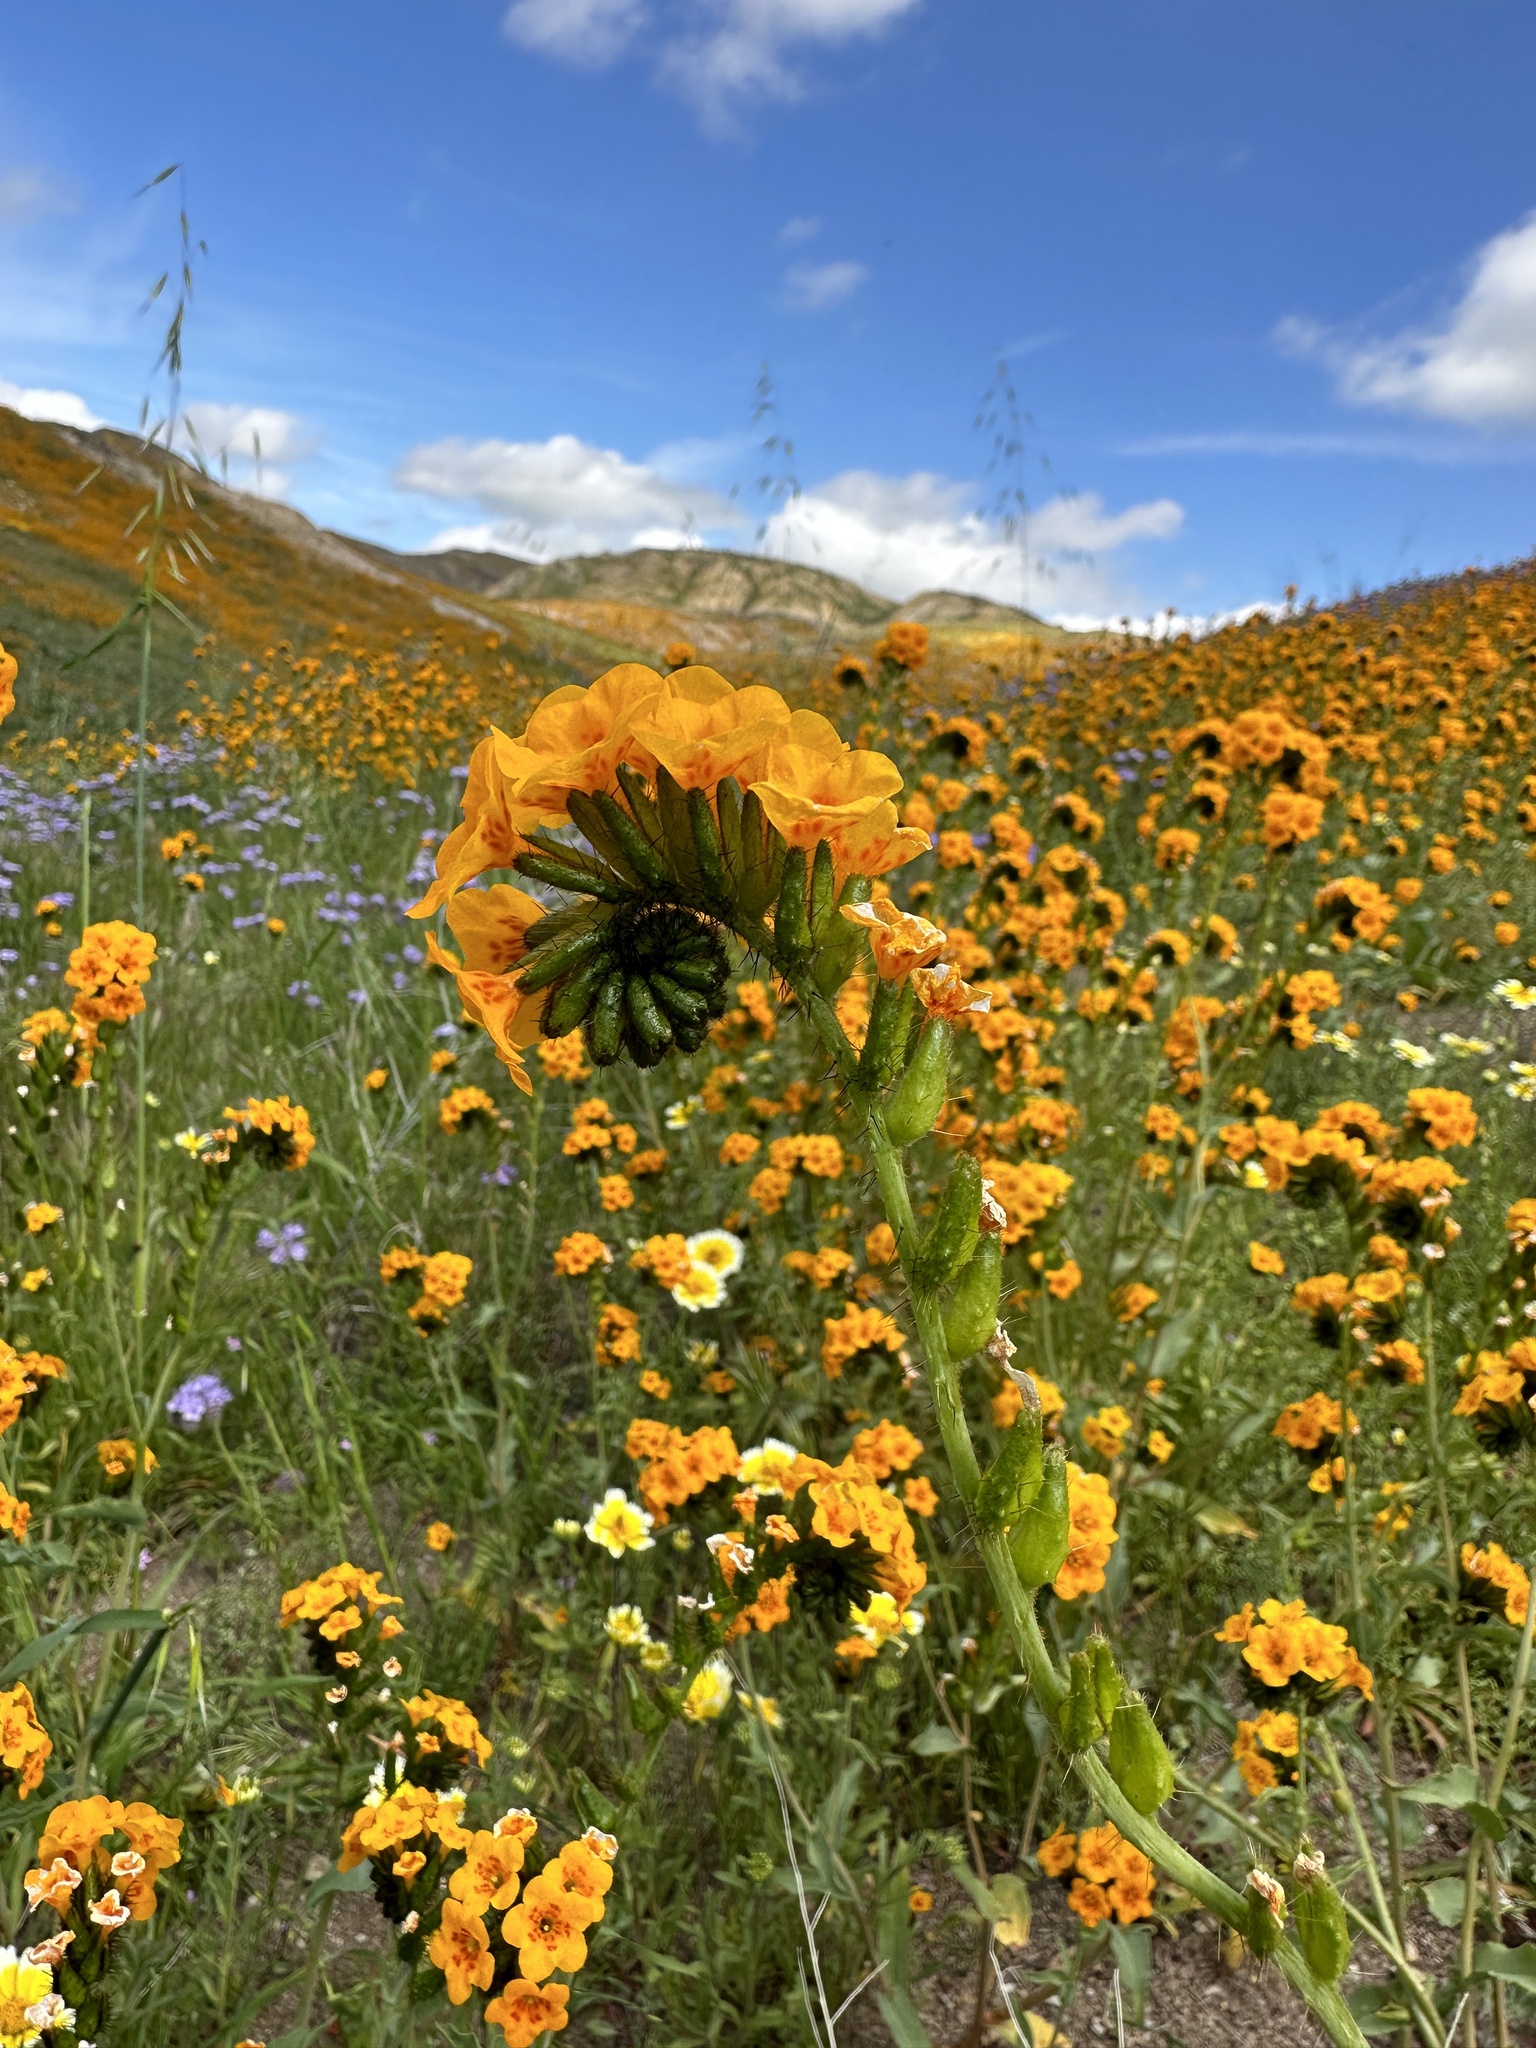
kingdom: Plantae
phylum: Tracheophyta
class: Magnoliopsida
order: Boraginales
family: Boraginaceae
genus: Amsinckia
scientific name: Amsinckia vernicosa
